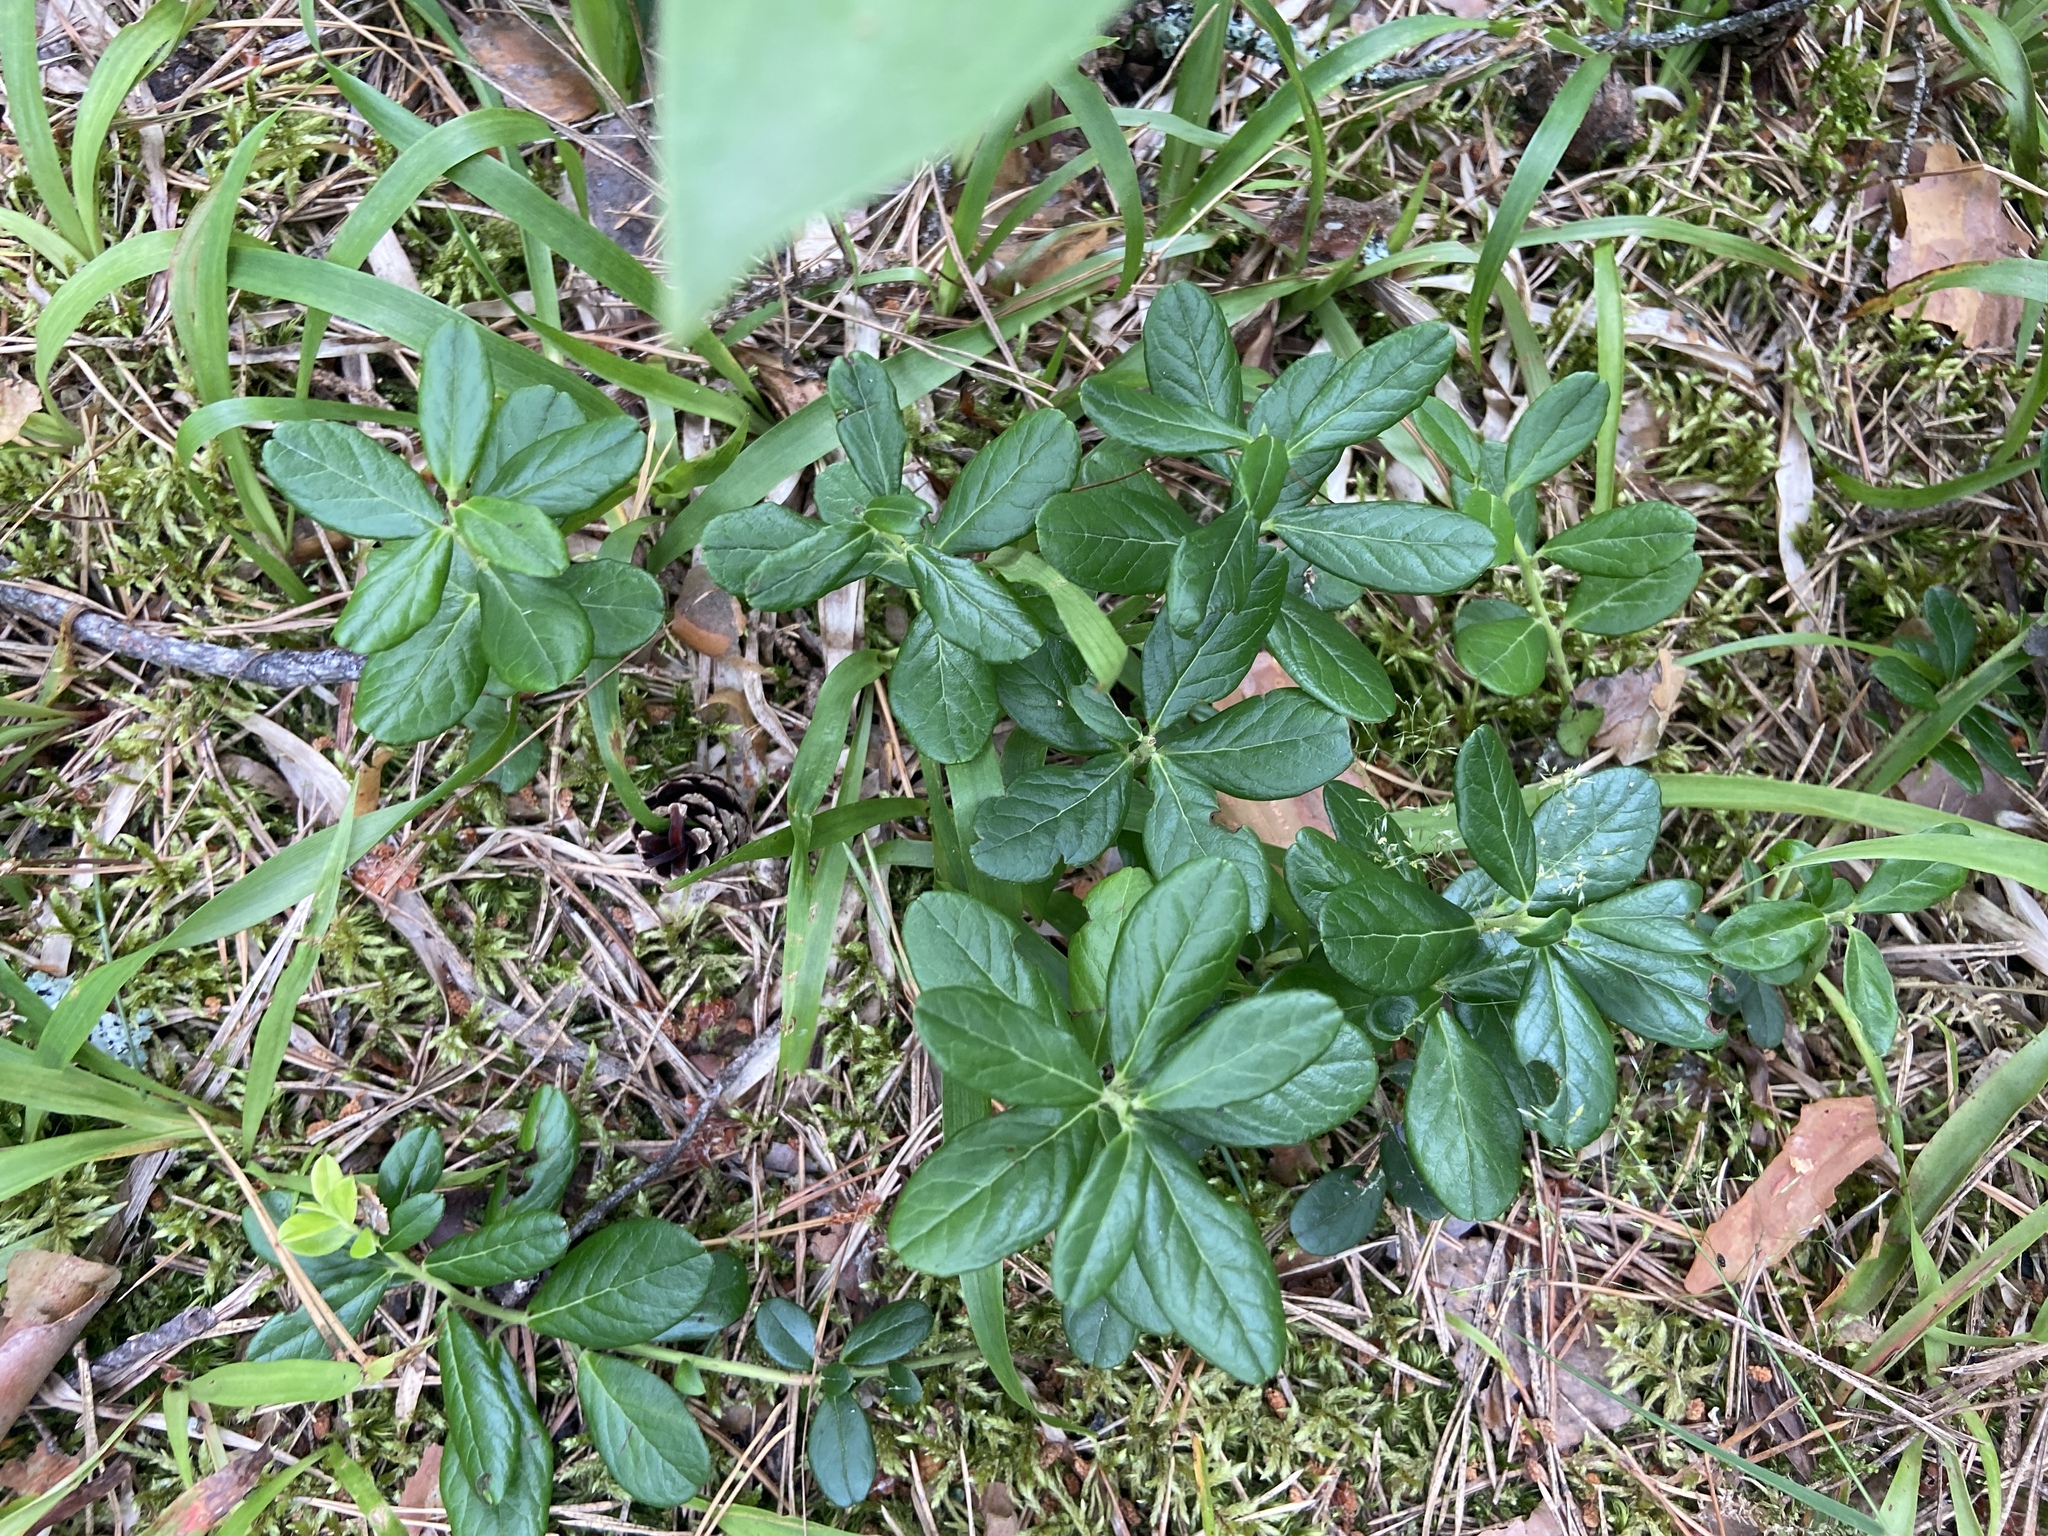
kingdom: Plantae
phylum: Tracheophyta
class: Magnoliopsida
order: Ericales
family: Ericaceae
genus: Vaccinium
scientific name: Vaccinium vitis-idaea
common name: Cowberry
